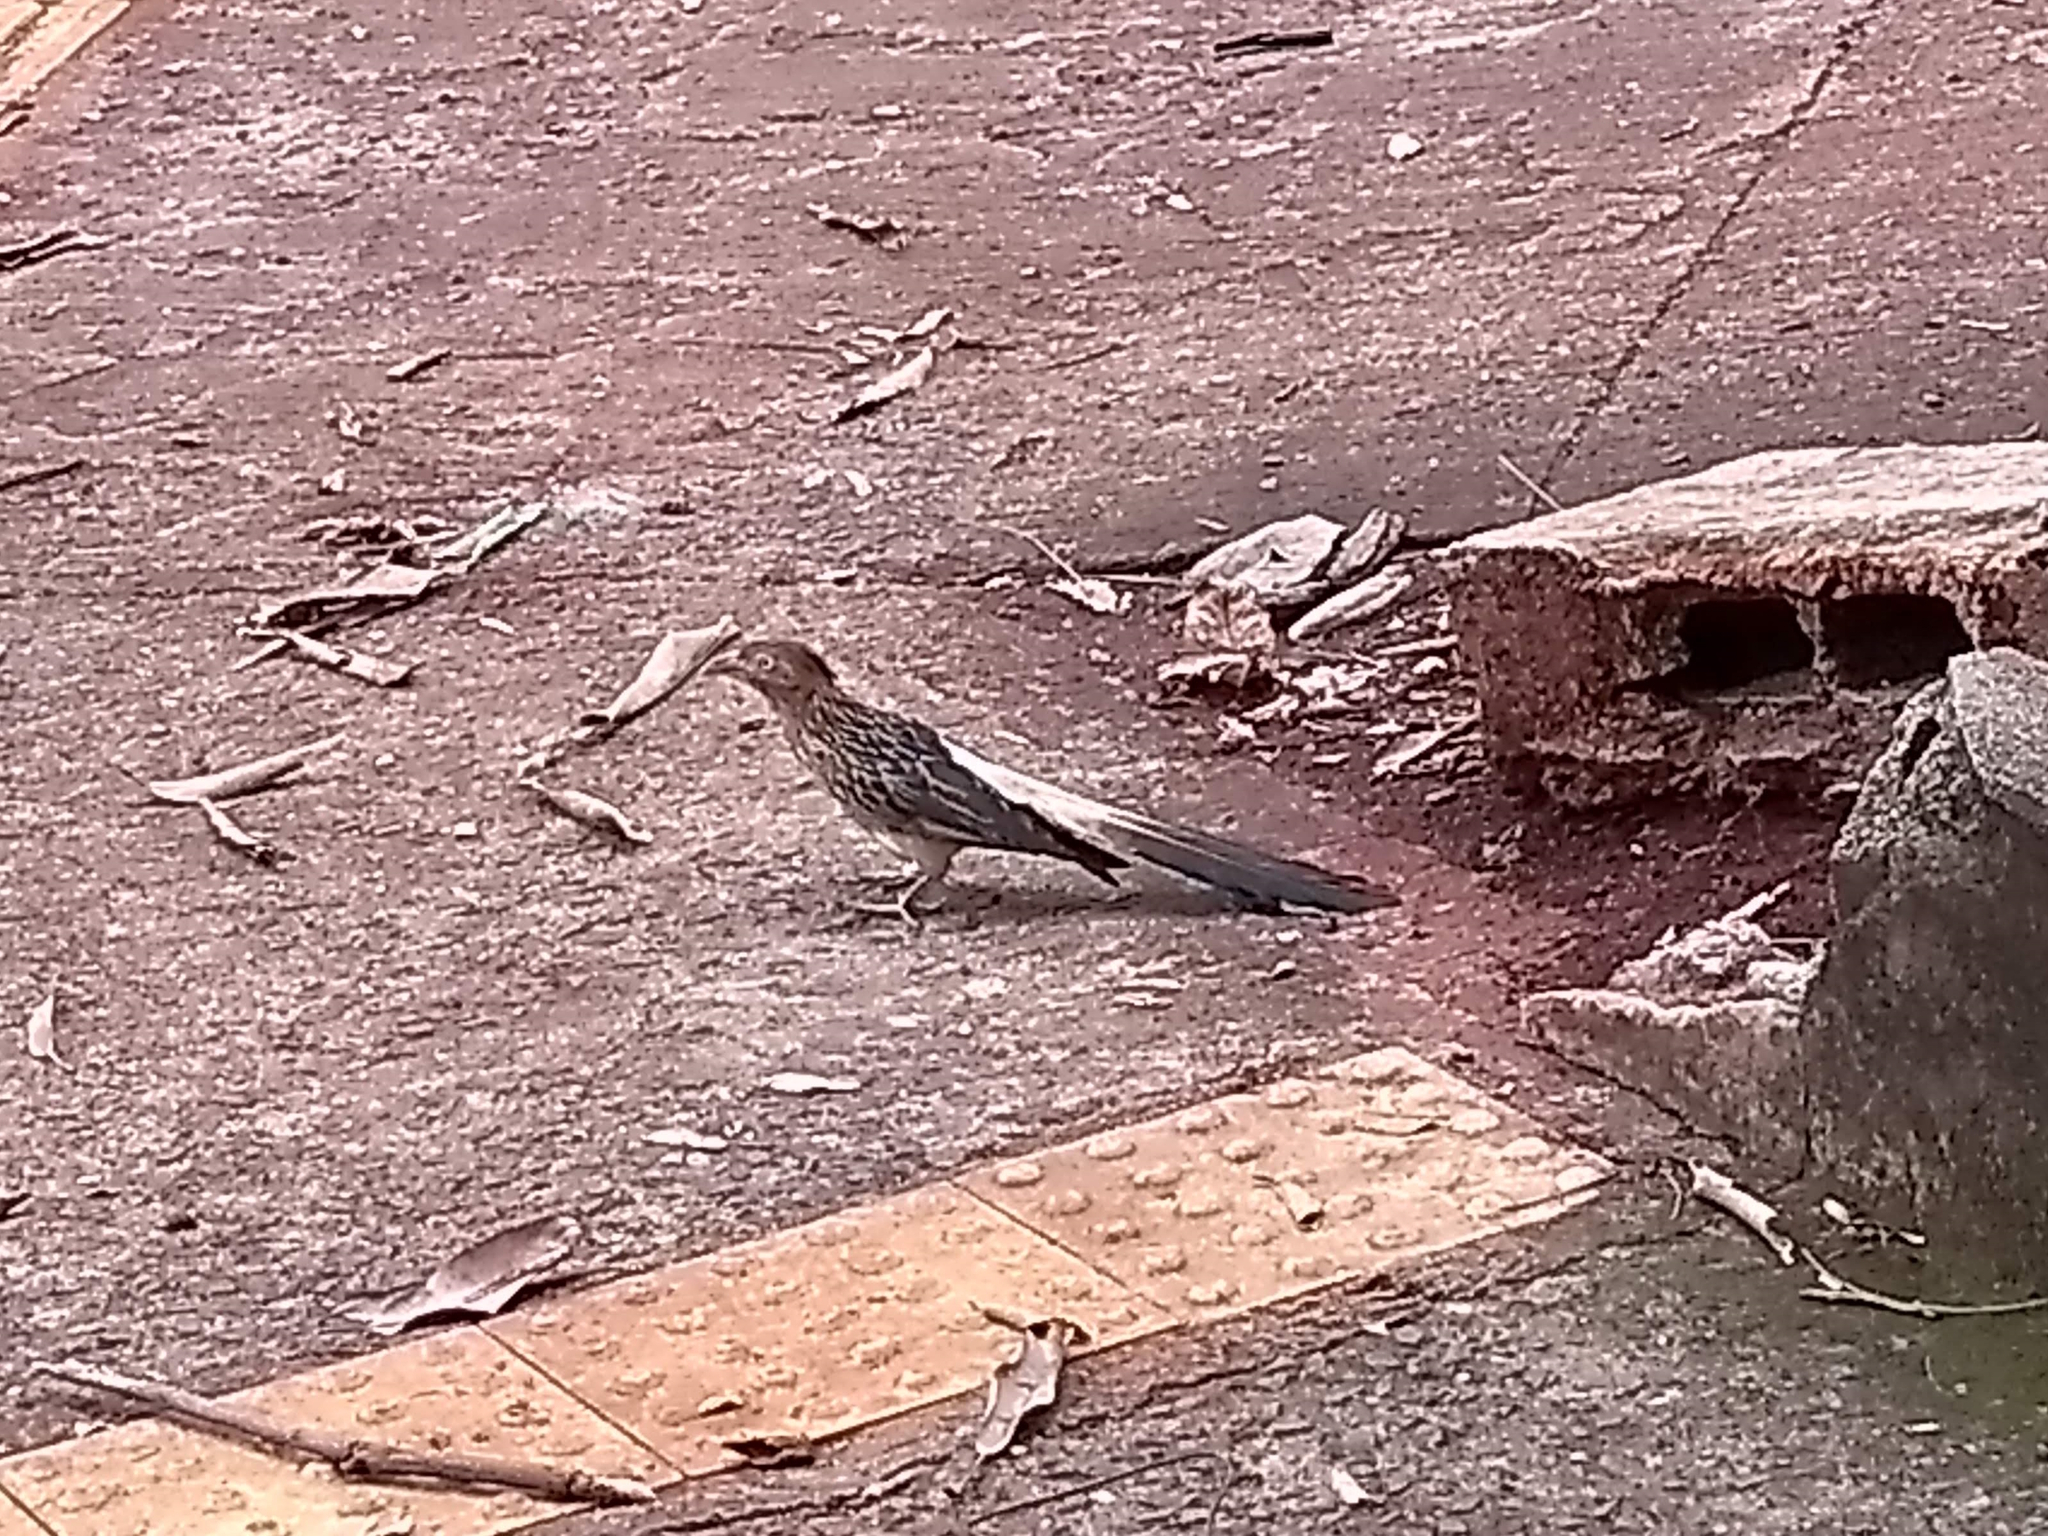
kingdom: Animalia
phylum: Chordata
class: Aves
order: Cuculiformes
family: Cuculidae
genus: Guira
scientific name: Guira guira
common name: Guira cuckoo
